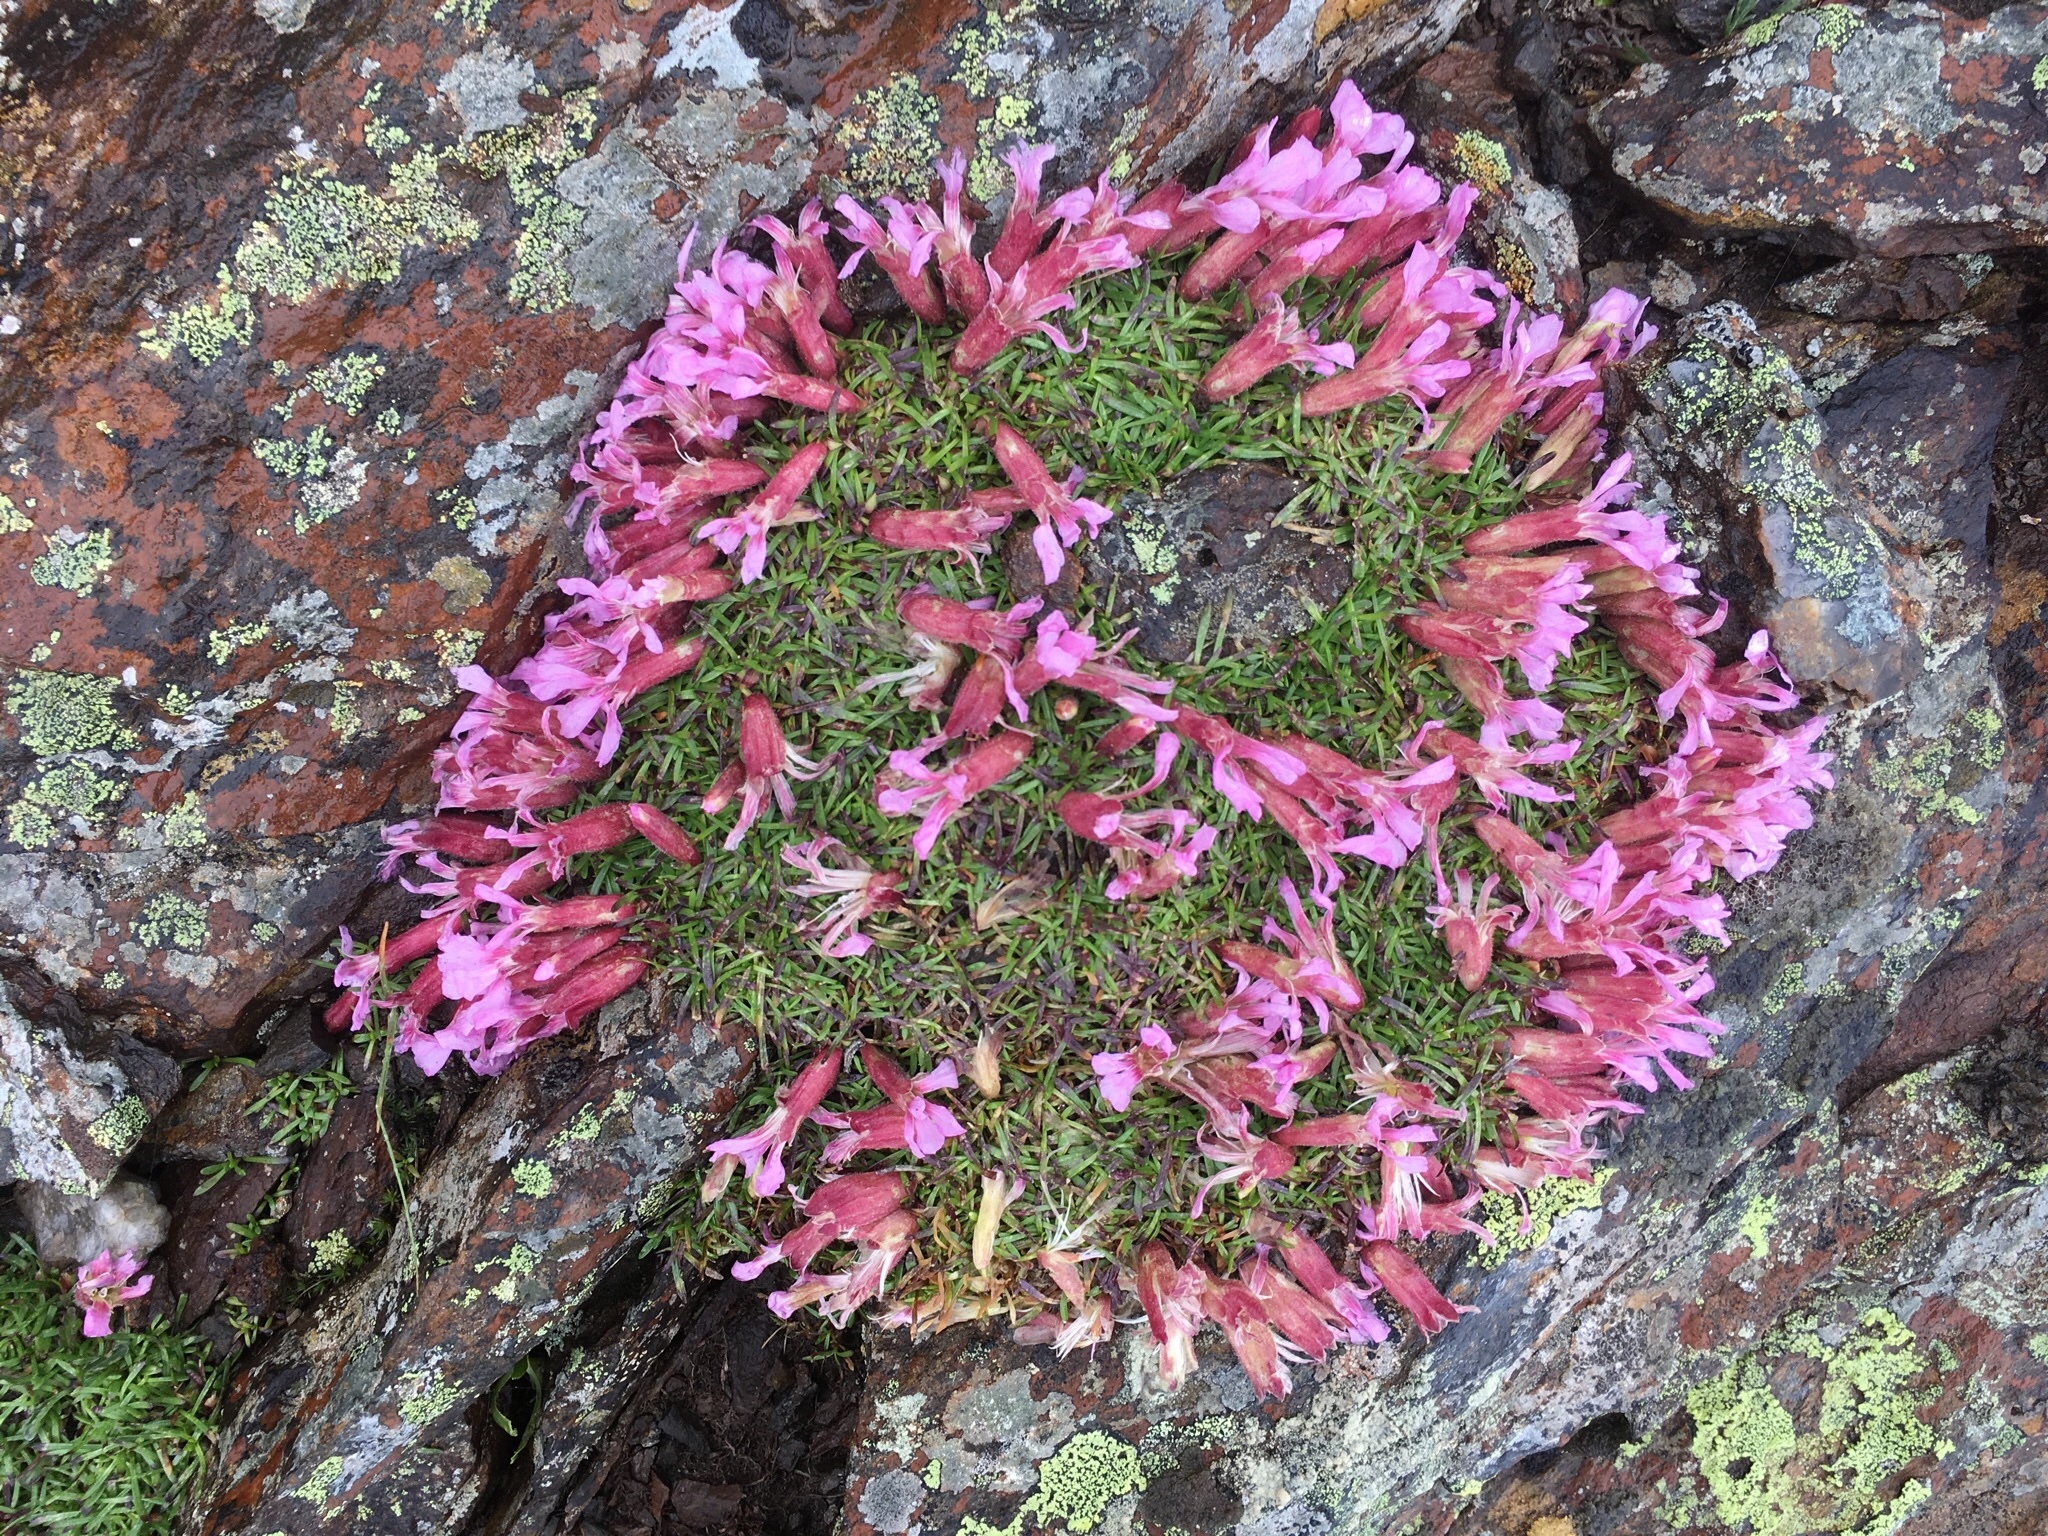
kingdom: Plantae
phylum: Tracheophyta
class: Magnoliopsida
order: Caryophyllales
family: Caryophyllaceae
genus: Saponaria
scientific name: Saponaria pumila
